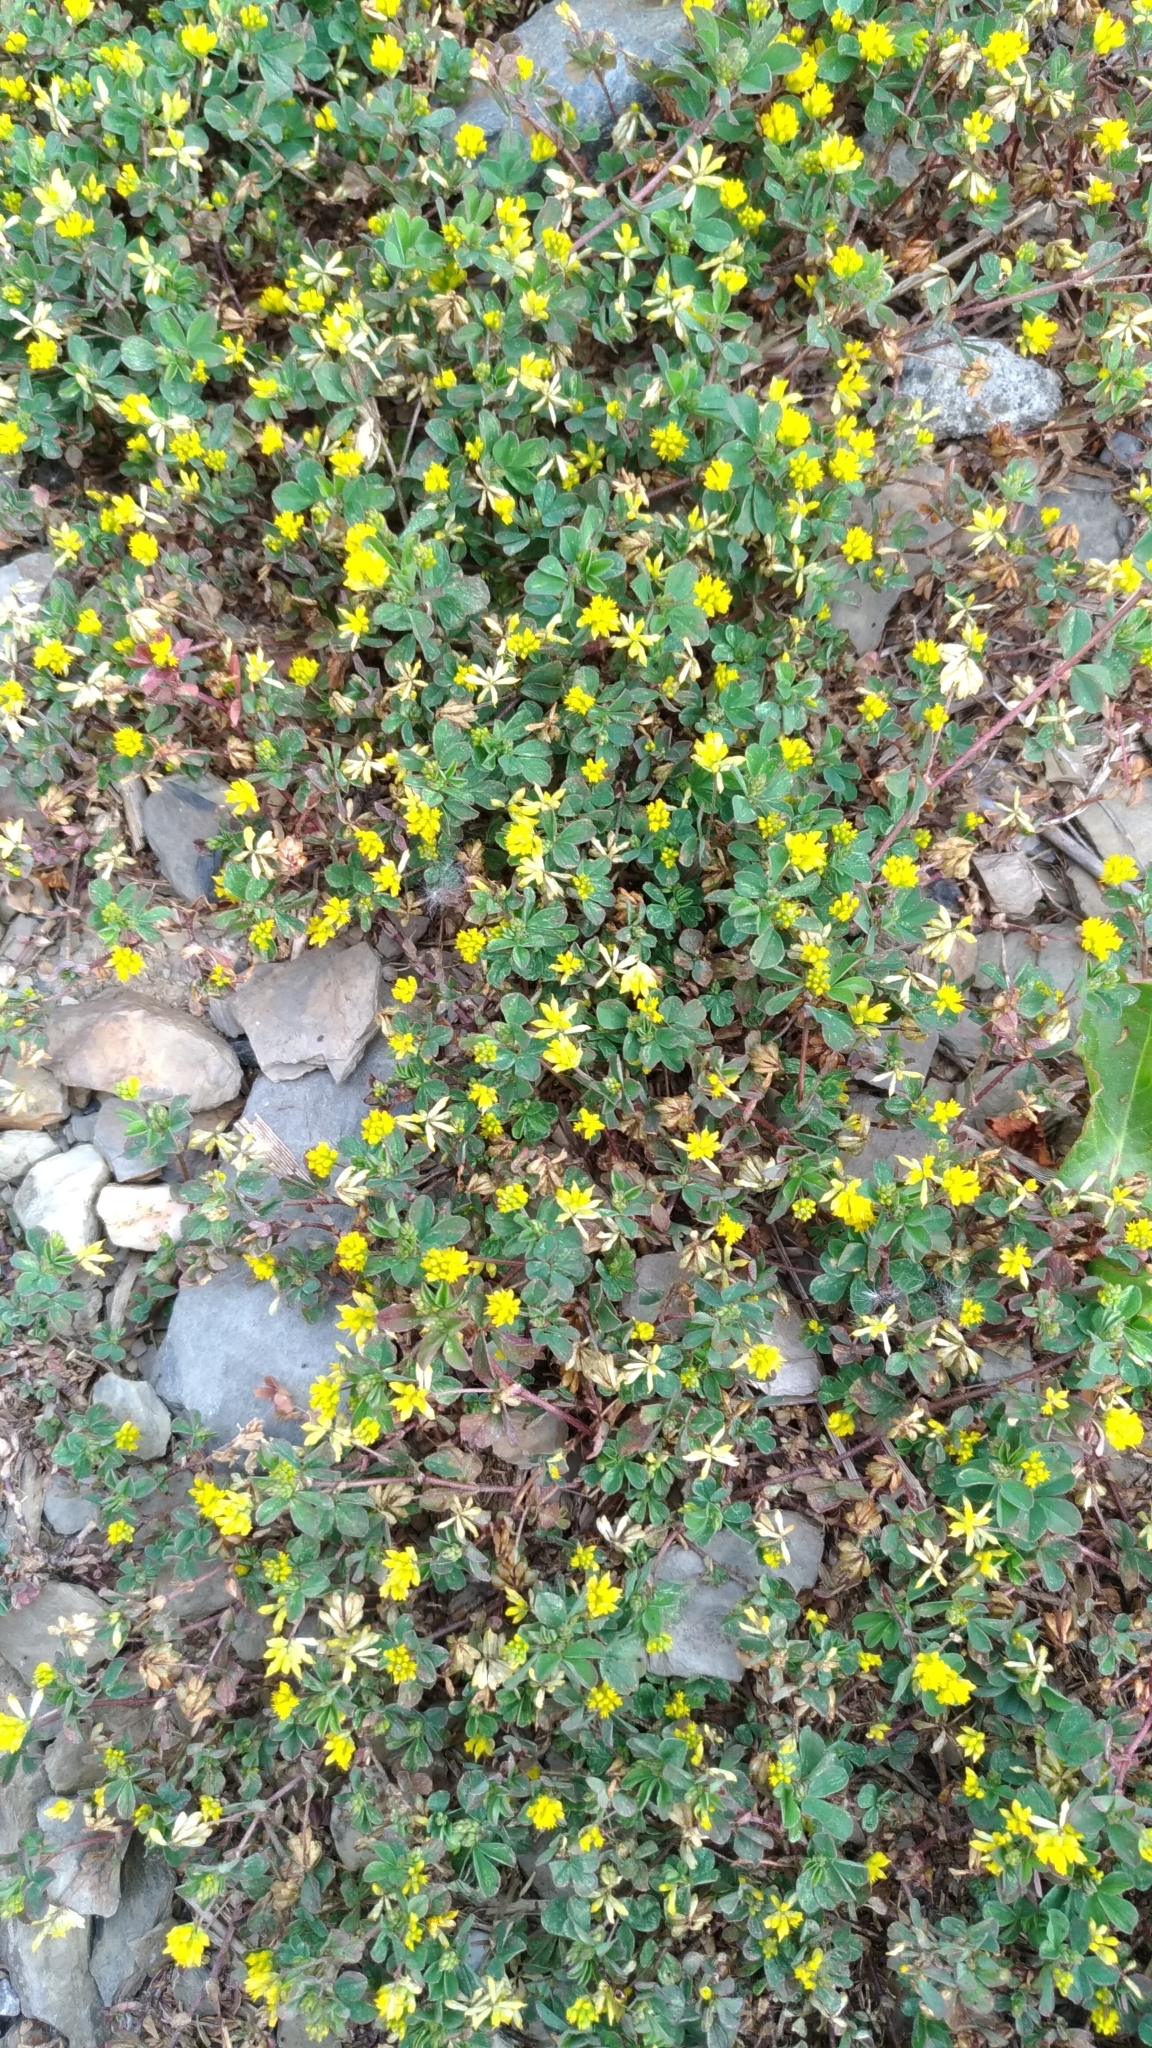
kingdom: Plantae
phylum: Tracheophyta
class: Magnoliopsida
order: Fabales
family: Fabaceae
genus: Trifolium
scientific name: Trifolium dubium
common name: Suckling clover
